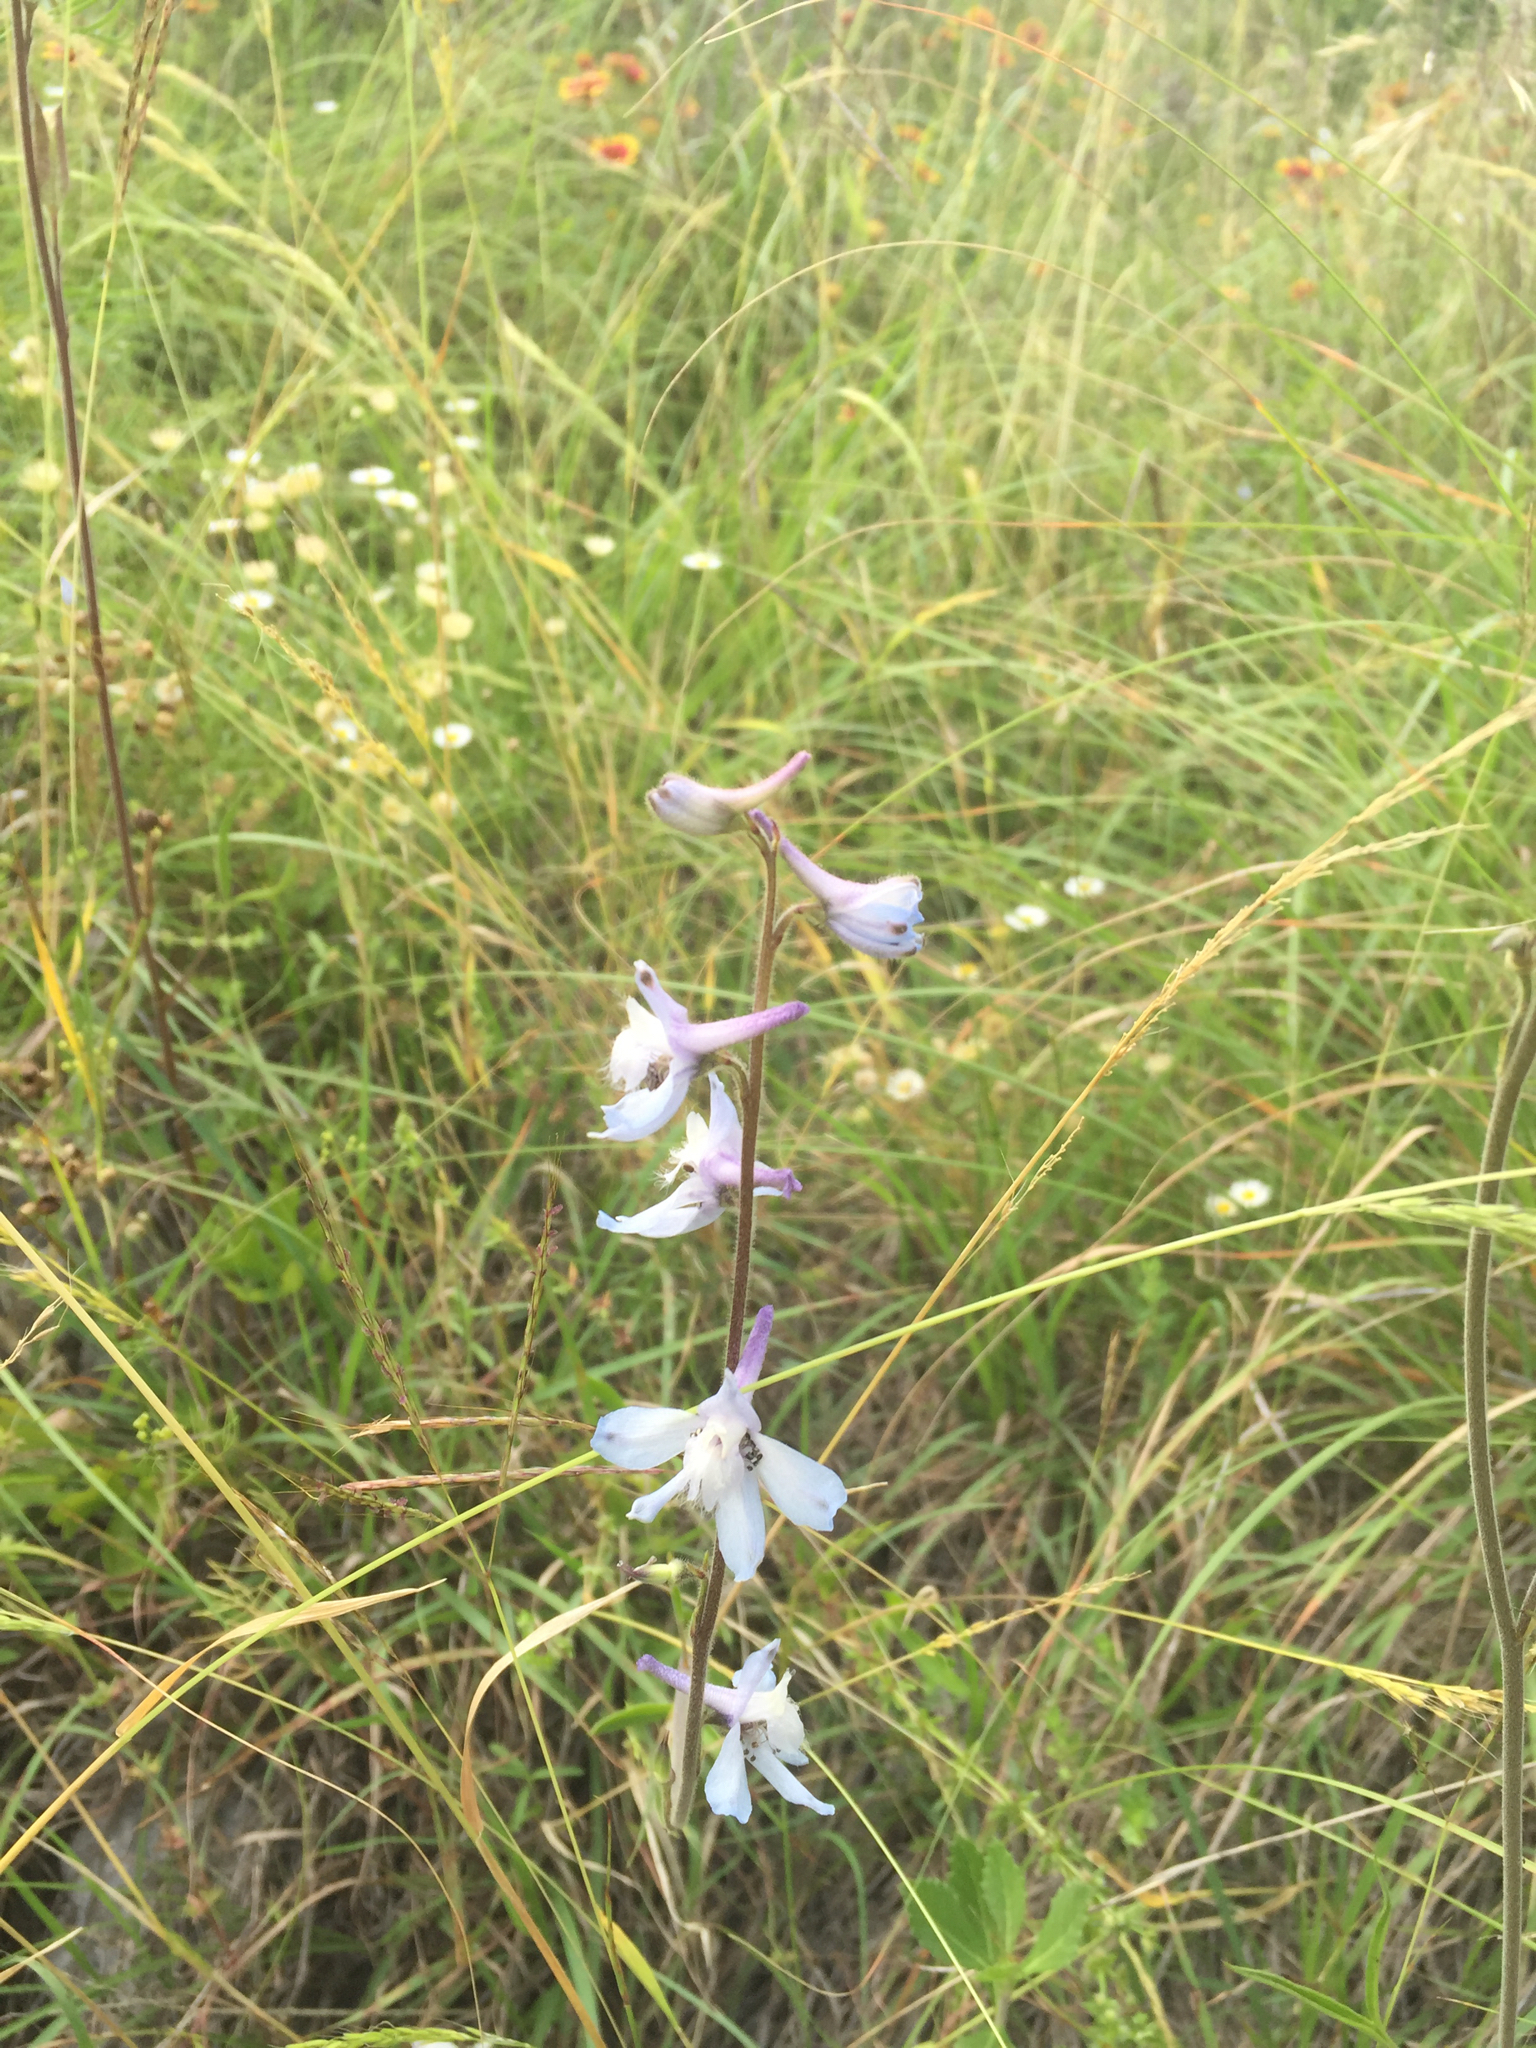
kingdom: Plantae
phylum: Tracheophyta
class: Magnoliopsida
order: Ranunculales
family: Ranunculaceae
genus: Delphinium
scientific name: Delphinium carolinianum
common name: Carolina larkspur
